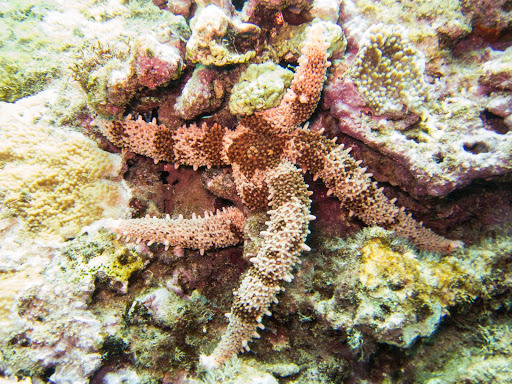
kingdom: Animalia
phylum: Echinodermata
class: Asteroidea
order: Valvatida
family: Mithrodiidae
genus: Mithrodia
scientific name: Mithrodia fisheri
